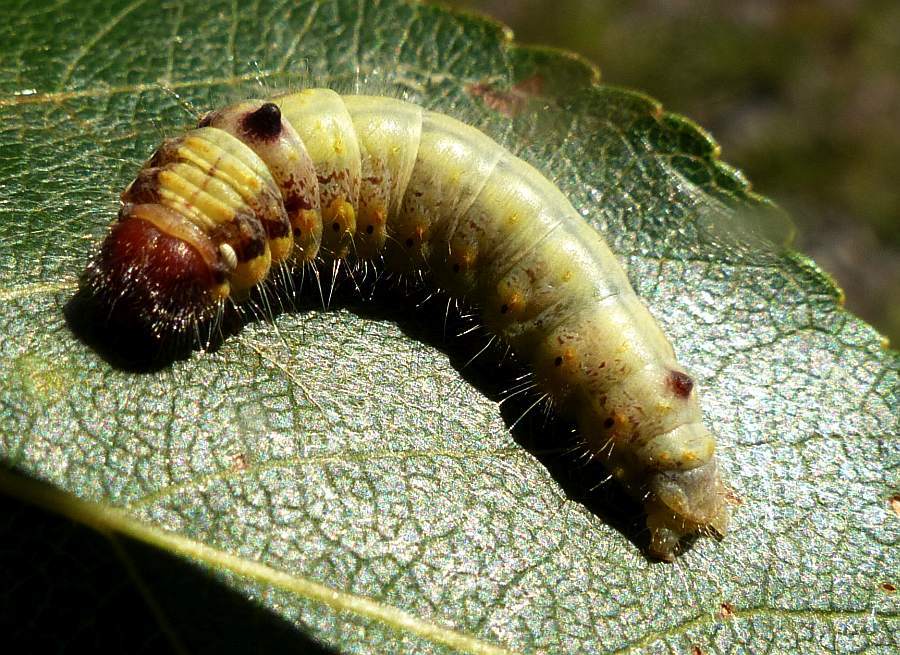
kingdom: Animalia
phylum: Arthropoda
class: Insecta
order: Lepidoptera
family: Notodontidae
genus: Clostera
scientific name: Clostera albosigma
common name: Sigmoid prominent
